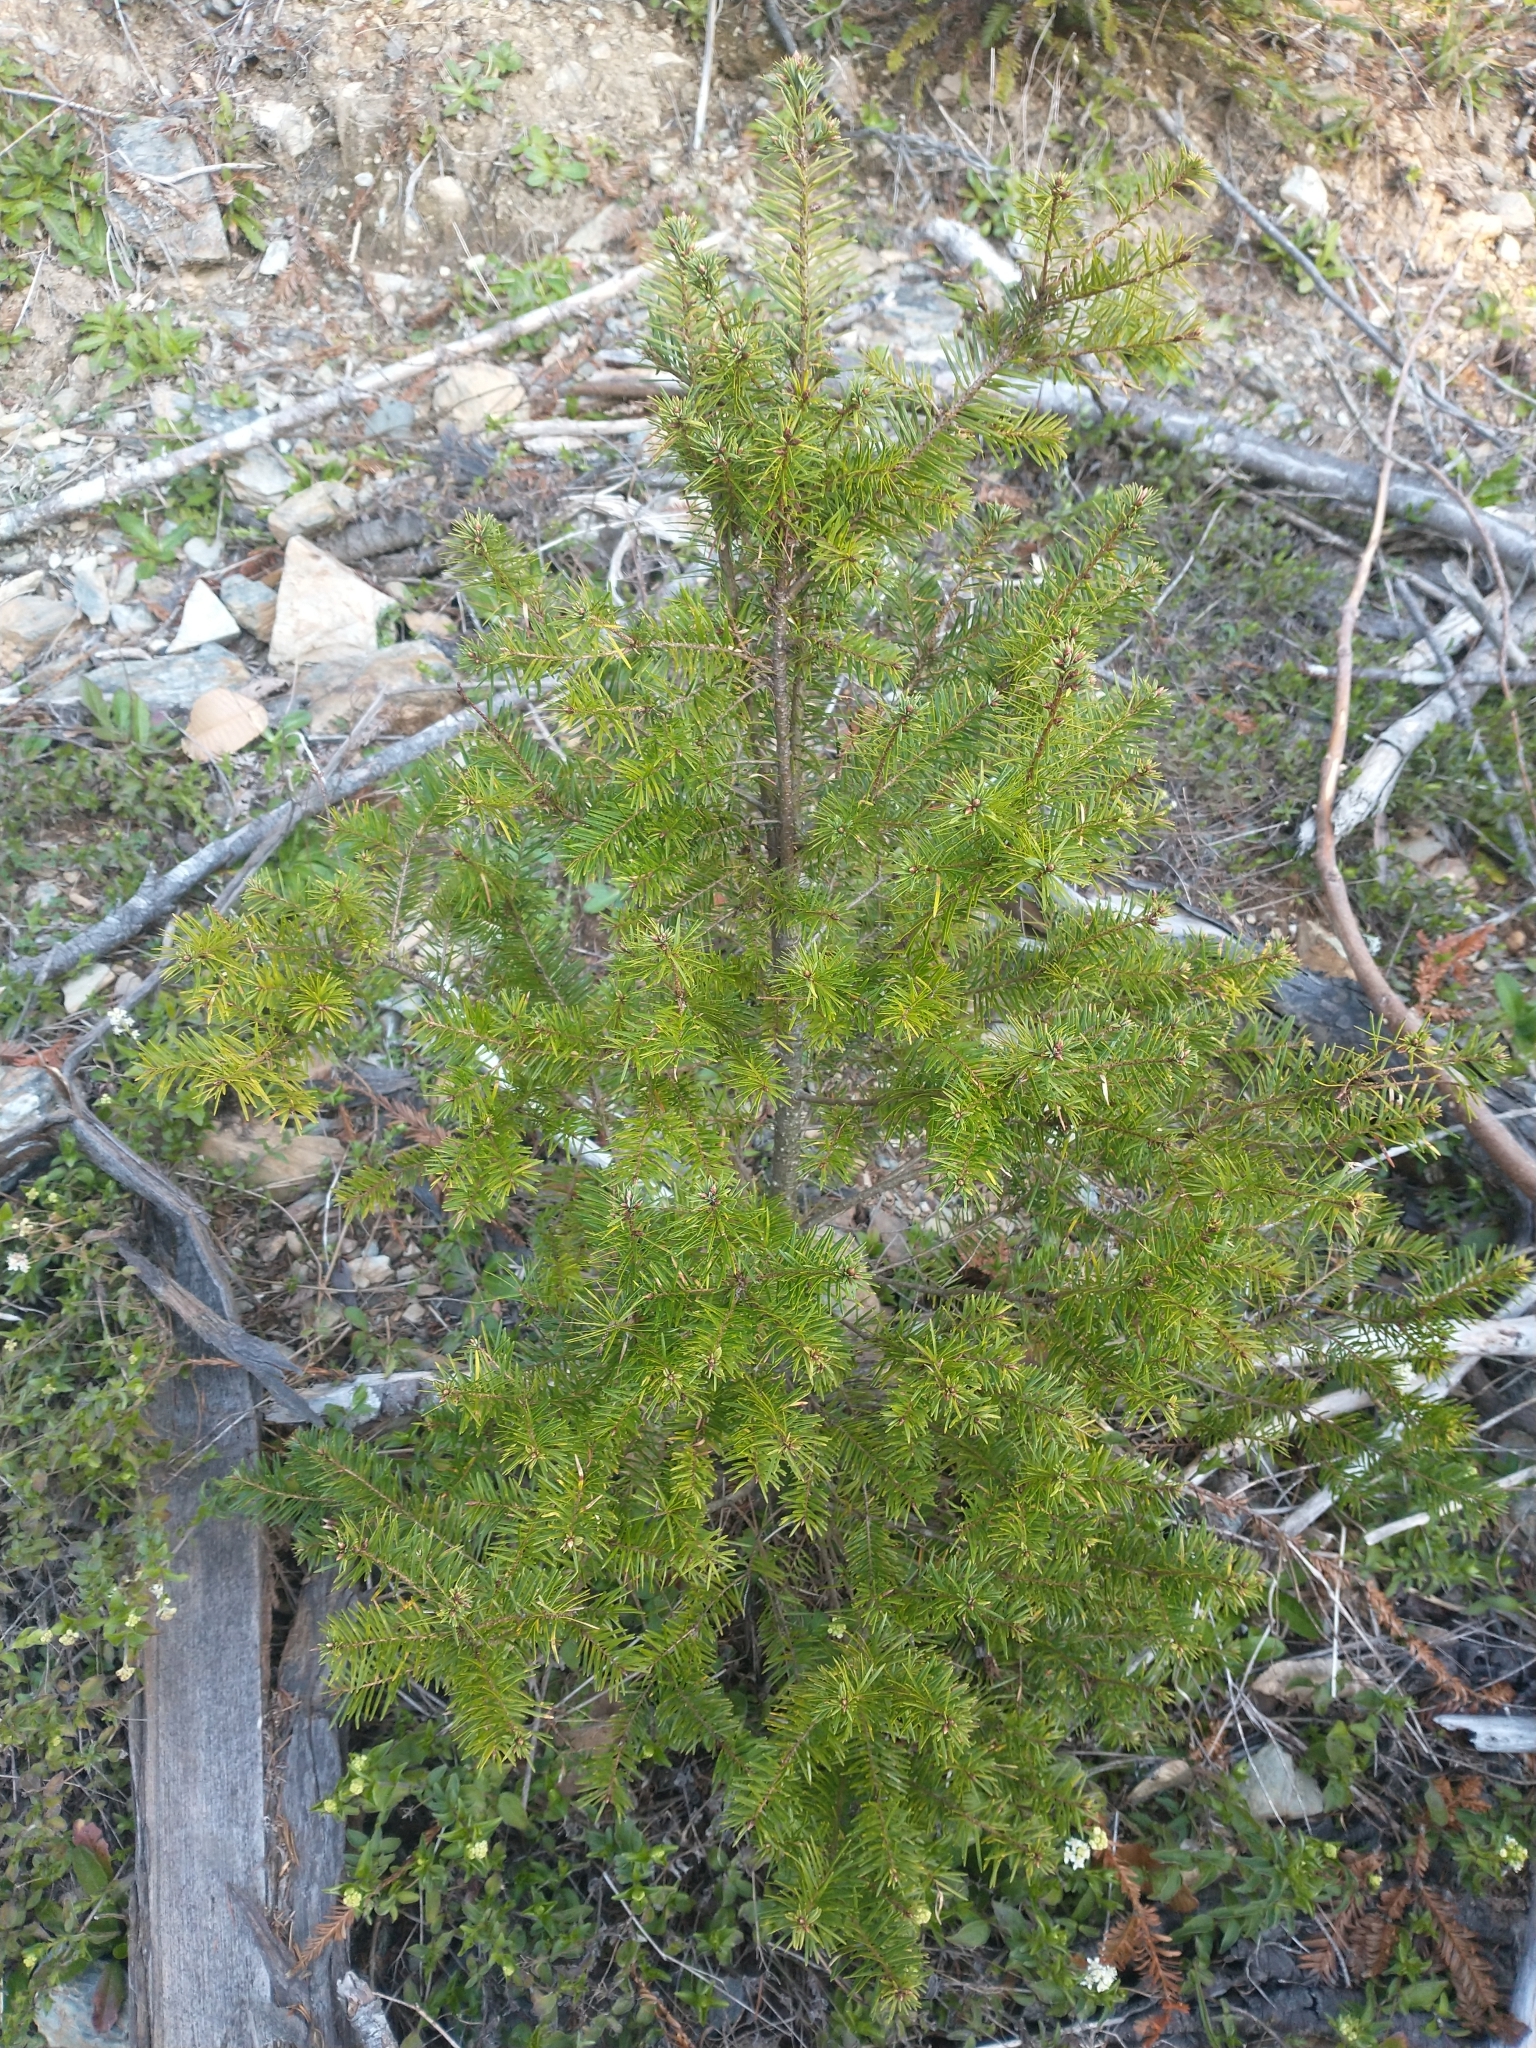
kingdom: Plantae
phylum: Tracheophyta
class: Pinopsida
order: Pinales
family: Pinaceae
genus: Pseudotsuga
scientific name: Pseudotsuga menziesii
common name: Douglas fir
